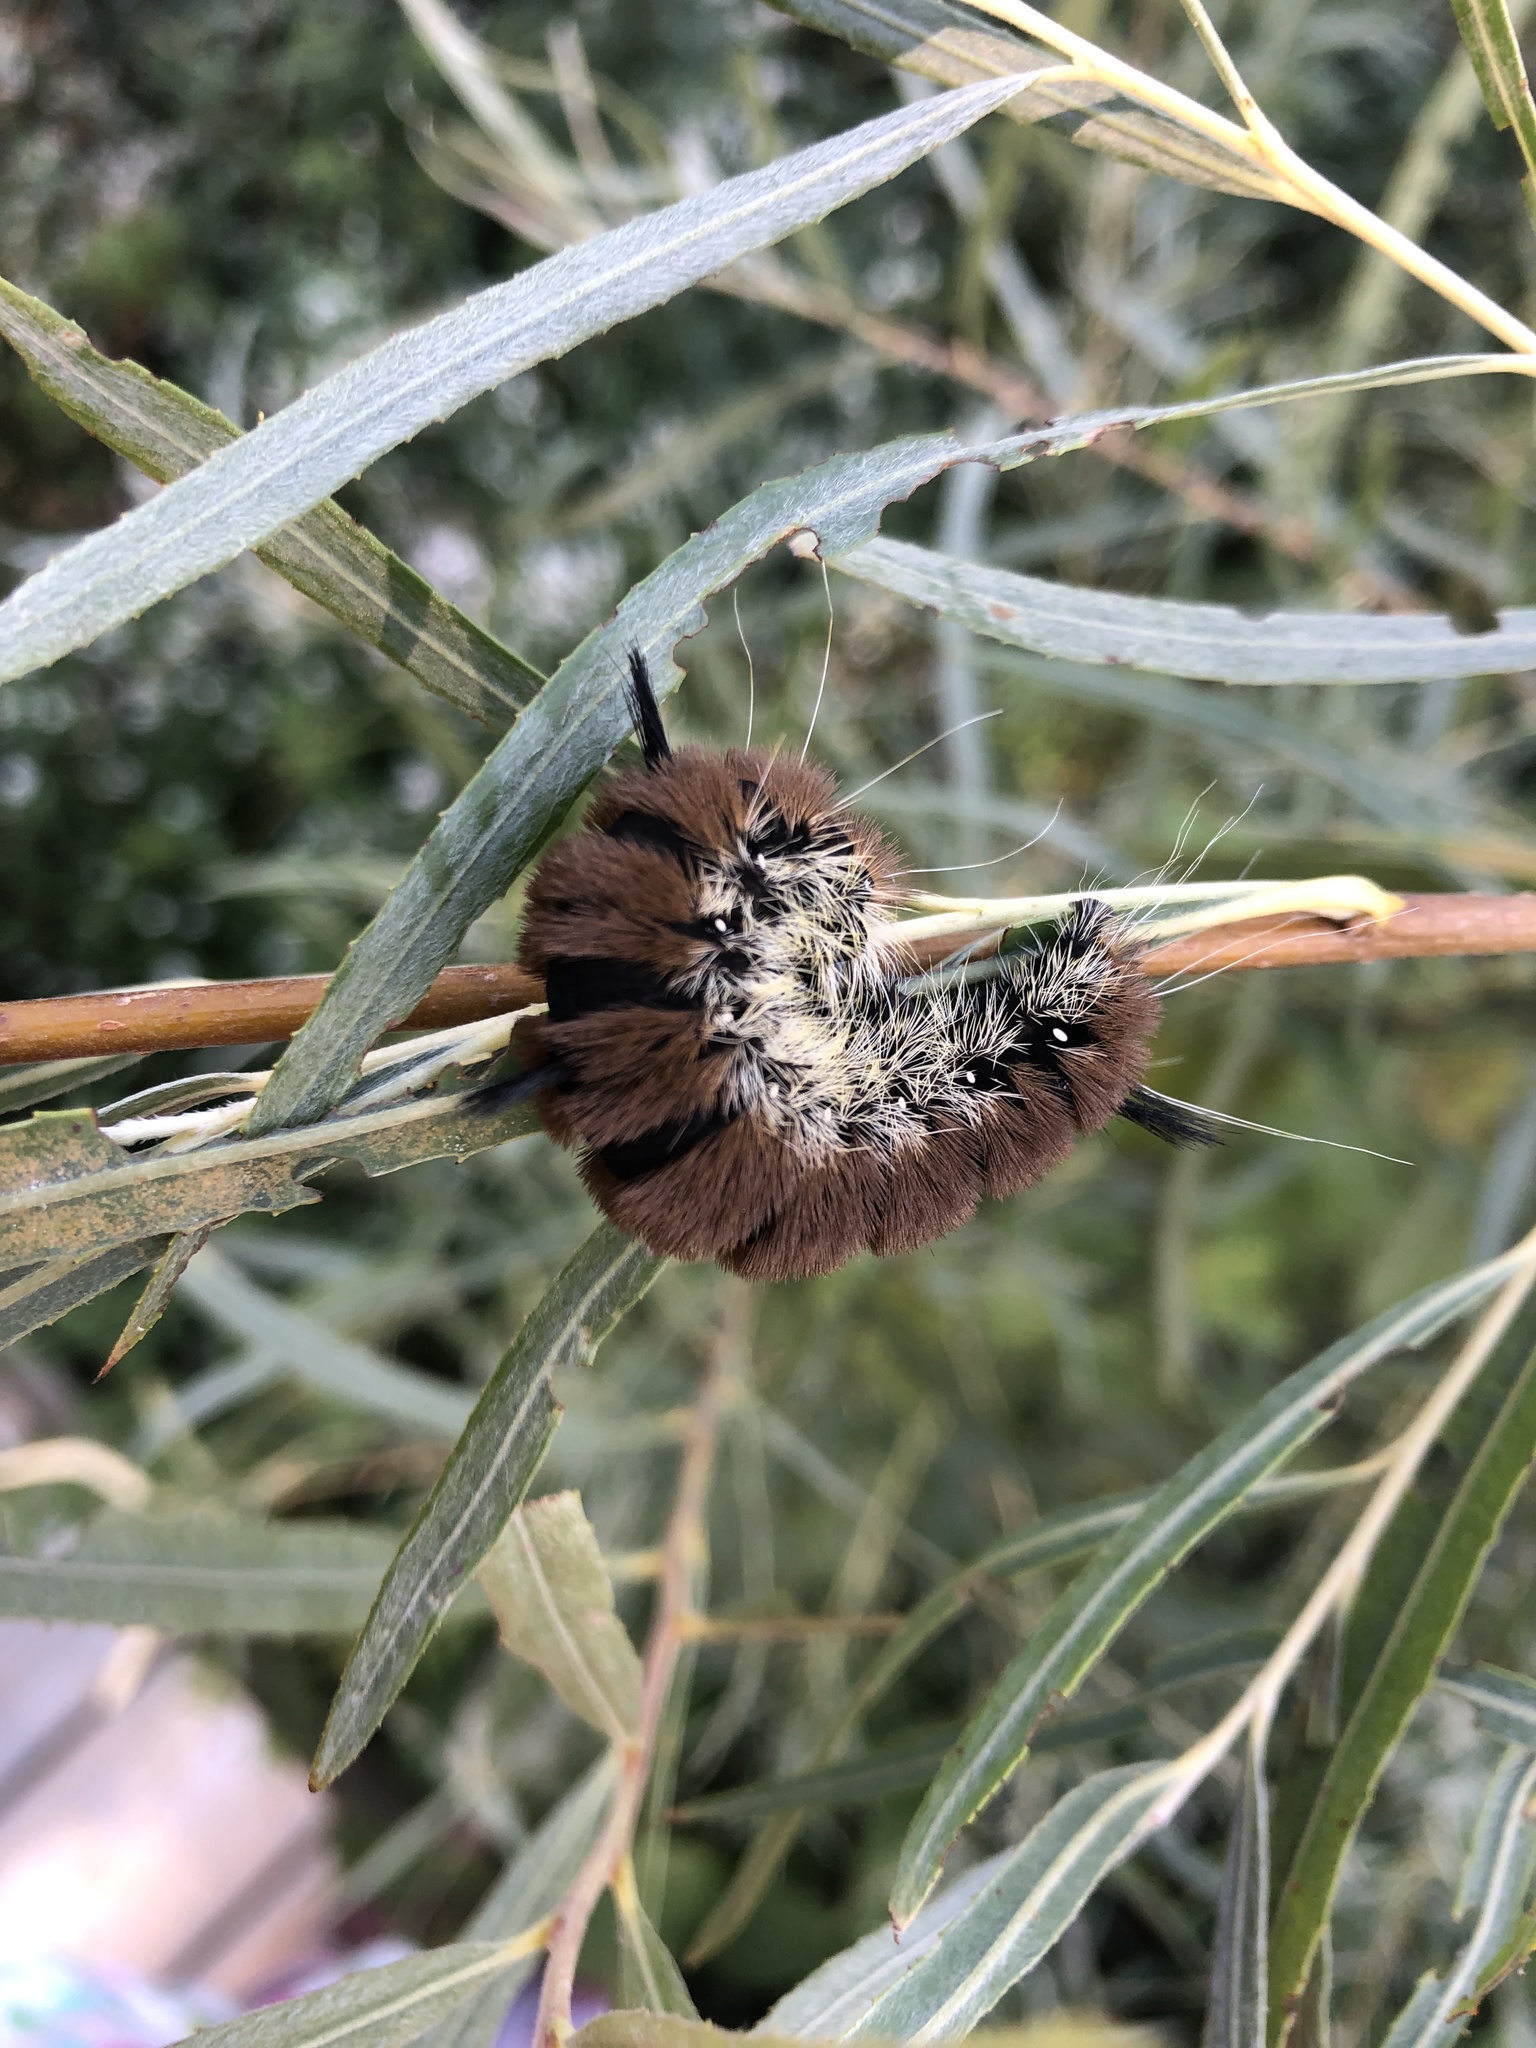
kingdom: Animalia
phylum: Arthropoda
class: Insecta
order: Lepidoptera
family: Noctuidae
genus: Acronicta
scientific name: Acronicta insita
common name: Large gray dagger
